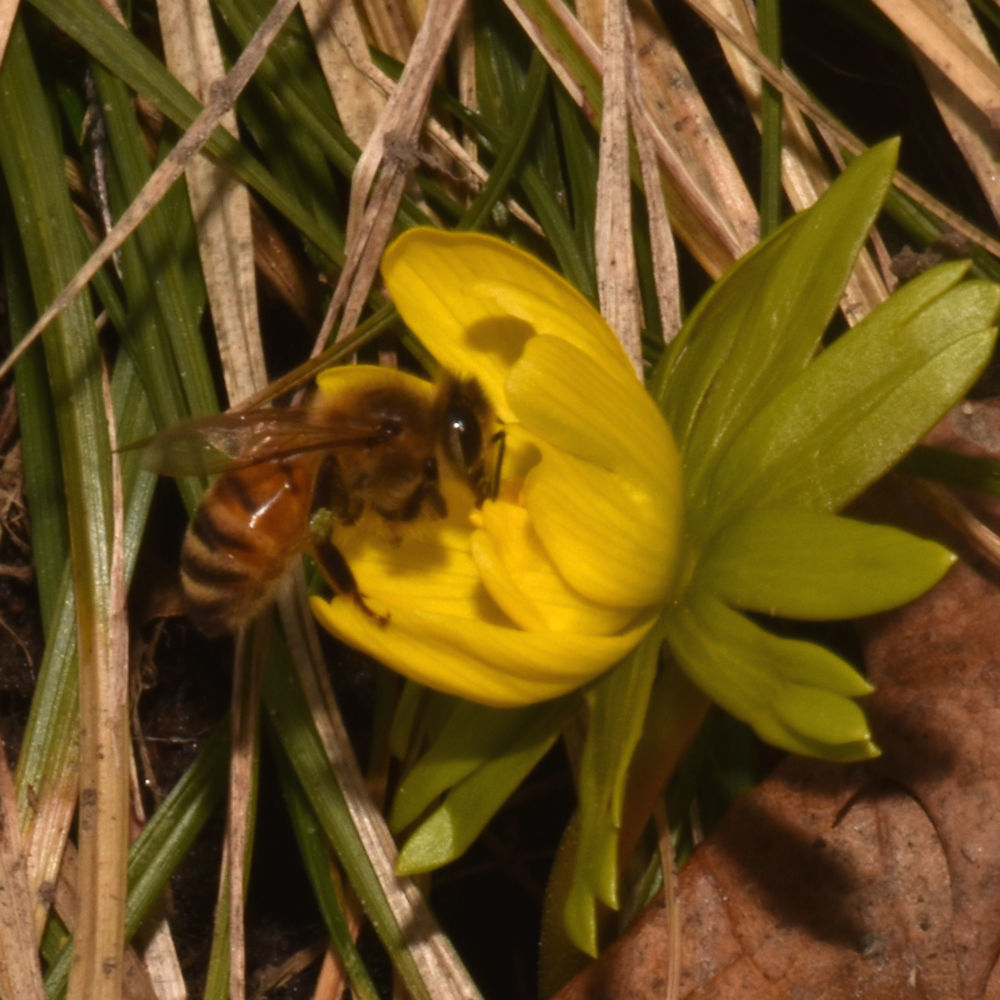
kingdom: Animalia
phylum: Arthropoda
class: Insecta
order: Hymenoptera
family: Apidae
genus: Apis
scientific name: Apis mellifera
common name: Honey bee
